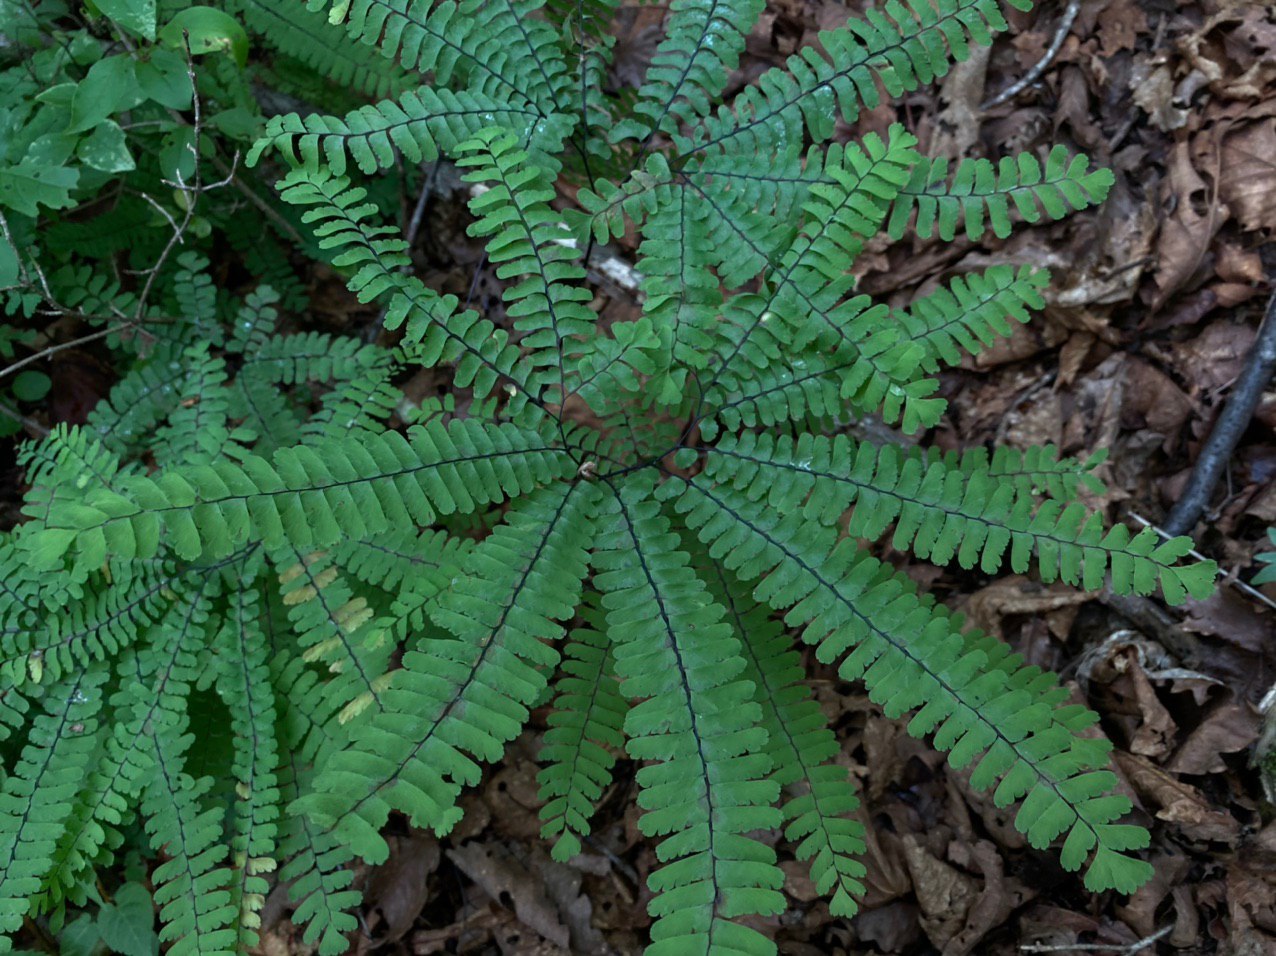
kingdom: Plantae
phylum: Tracheophyta
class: Polypodiopsida
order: Polypodiales
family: Pteridaceae
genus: Adiantum
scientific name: Adiantum pedatum
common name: Five-finger fern
